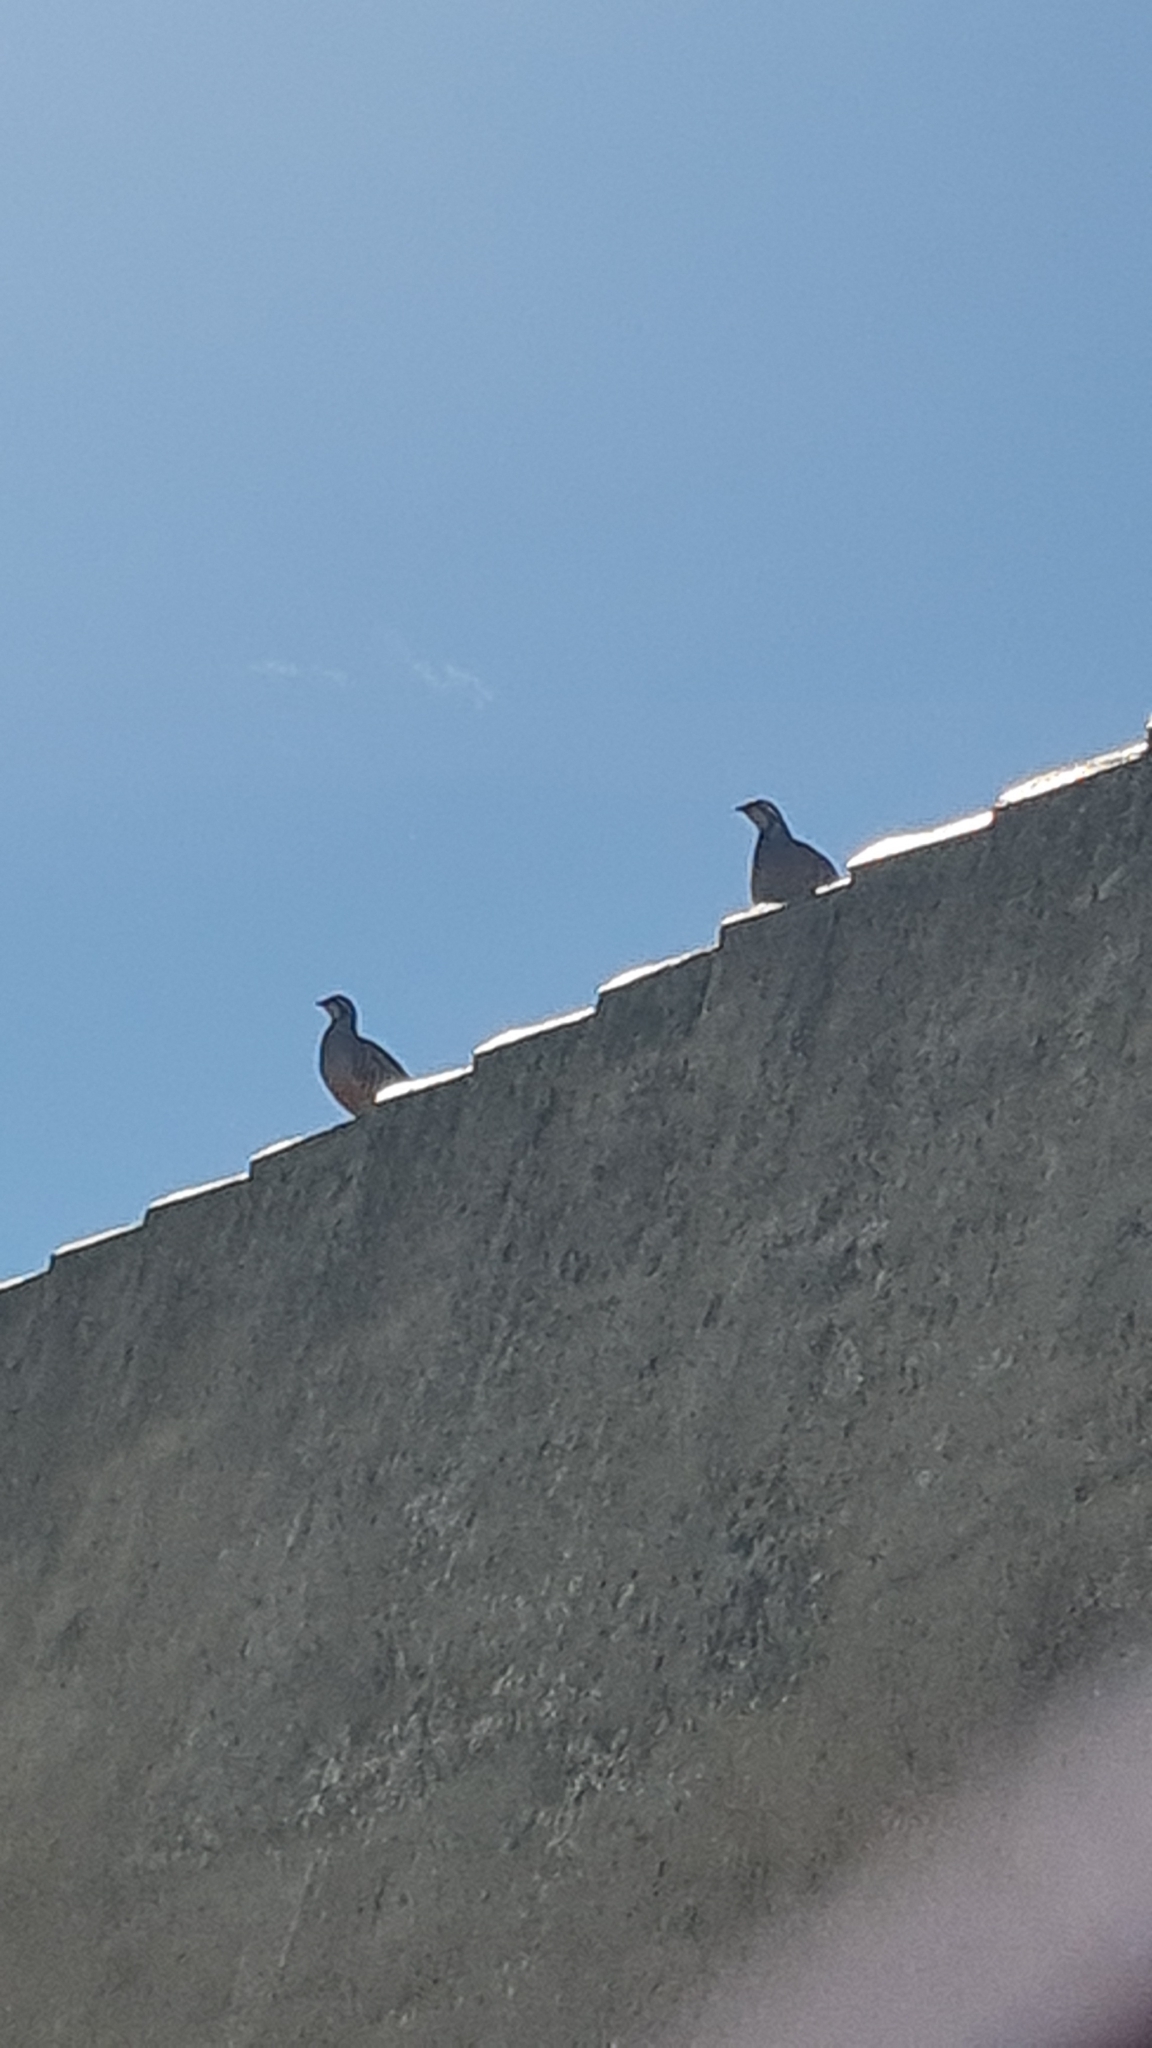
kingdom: Animalia
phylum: Chordata
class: Aves
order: Galliformes
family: Phasianidae
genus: Alectoris
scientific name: Alectoris rufa
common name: Red-legged partridge
